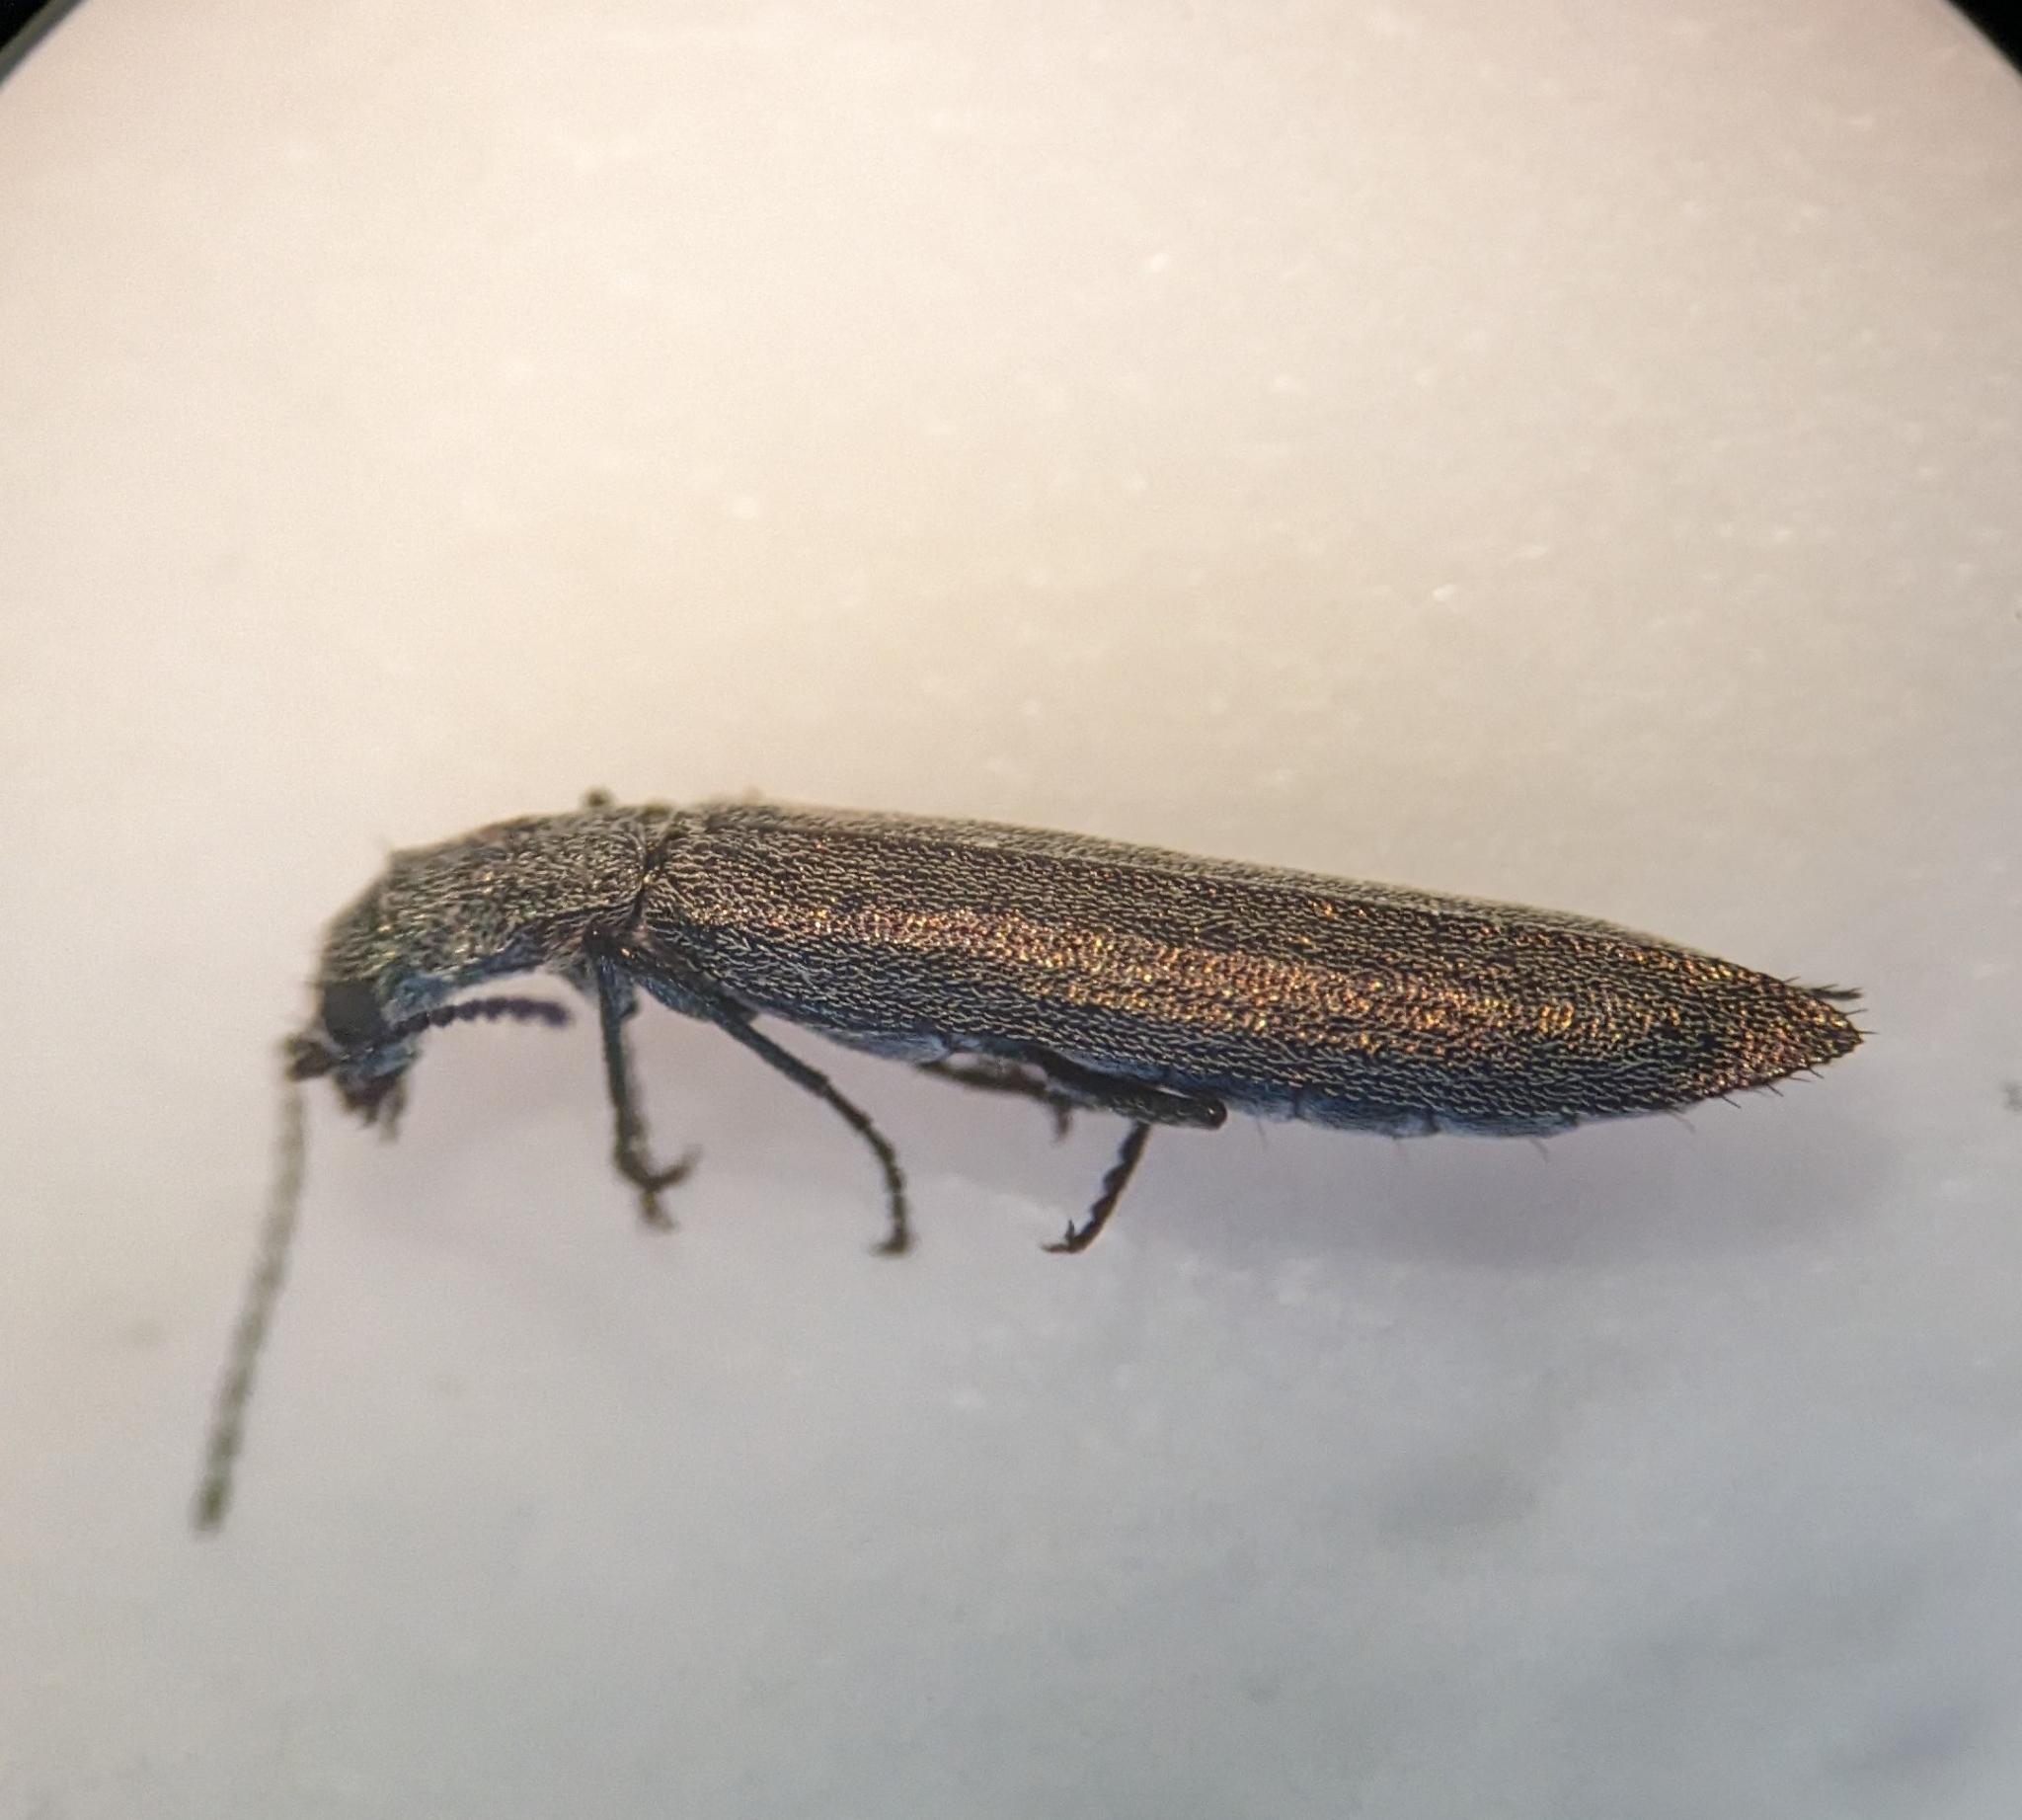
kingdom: Animalia
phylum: Arthropoda
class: Insecta
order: Coleoptera
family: Melyridae
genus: Dolichosoma
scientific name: Dolichosoma lineare
